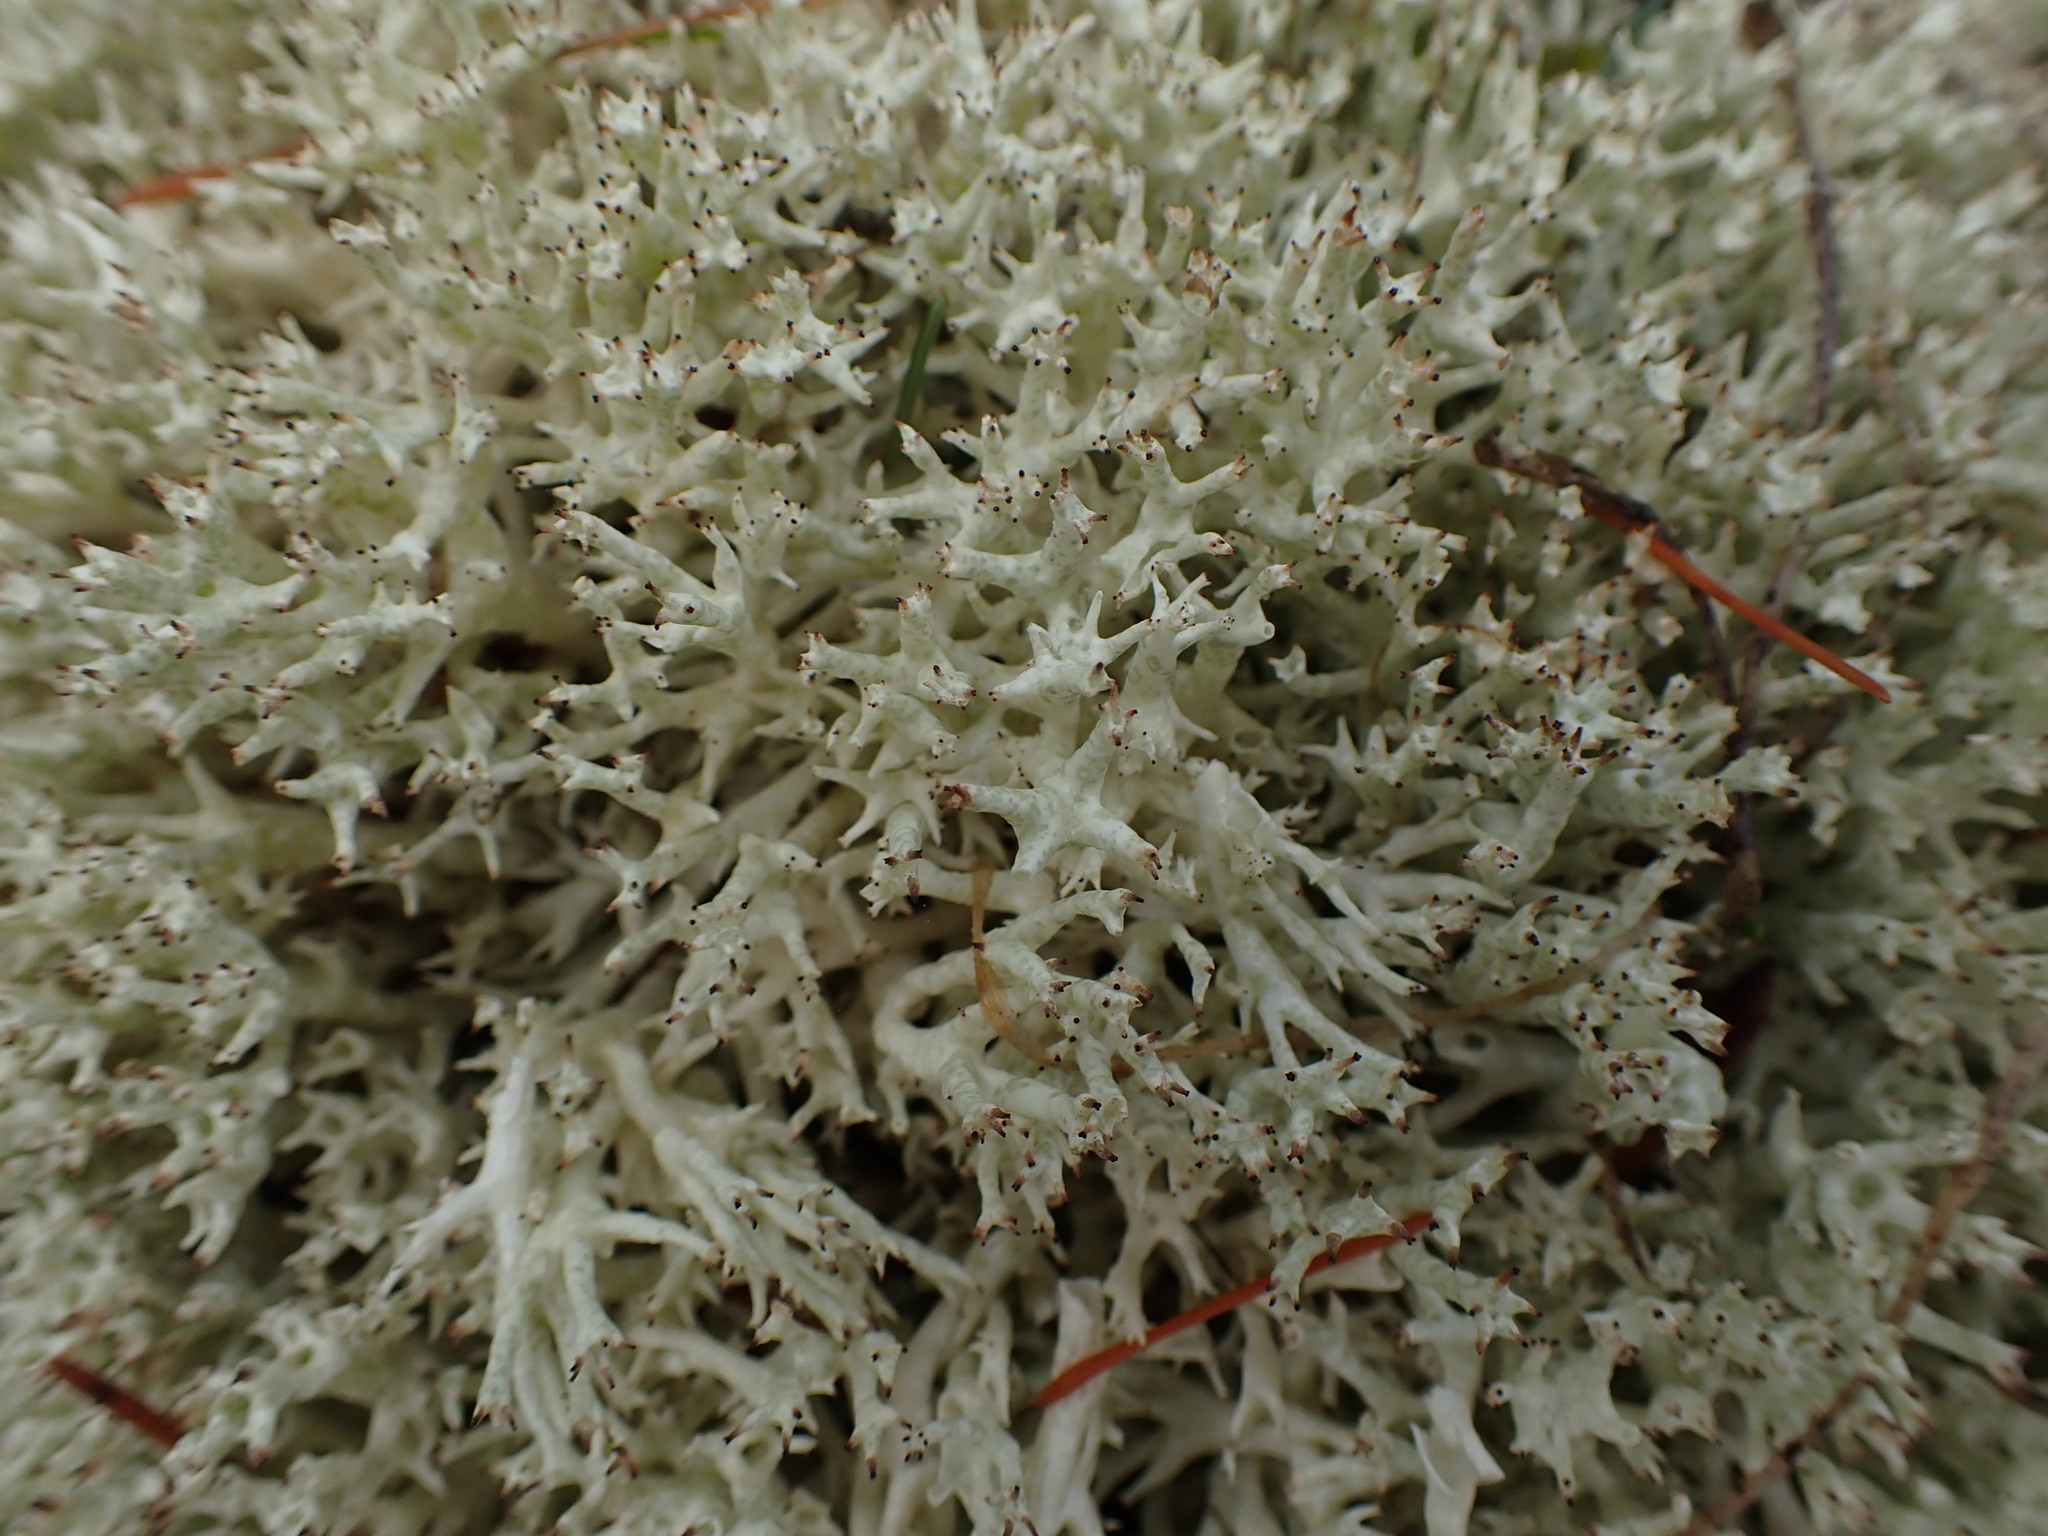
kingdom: Fungi
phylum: Ascomycota
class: Lecanoromycetes
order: Lecanorales
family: Cladoniaceae
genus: Cladonia
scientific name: Cladonia uncialis
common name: Thorn lichen
